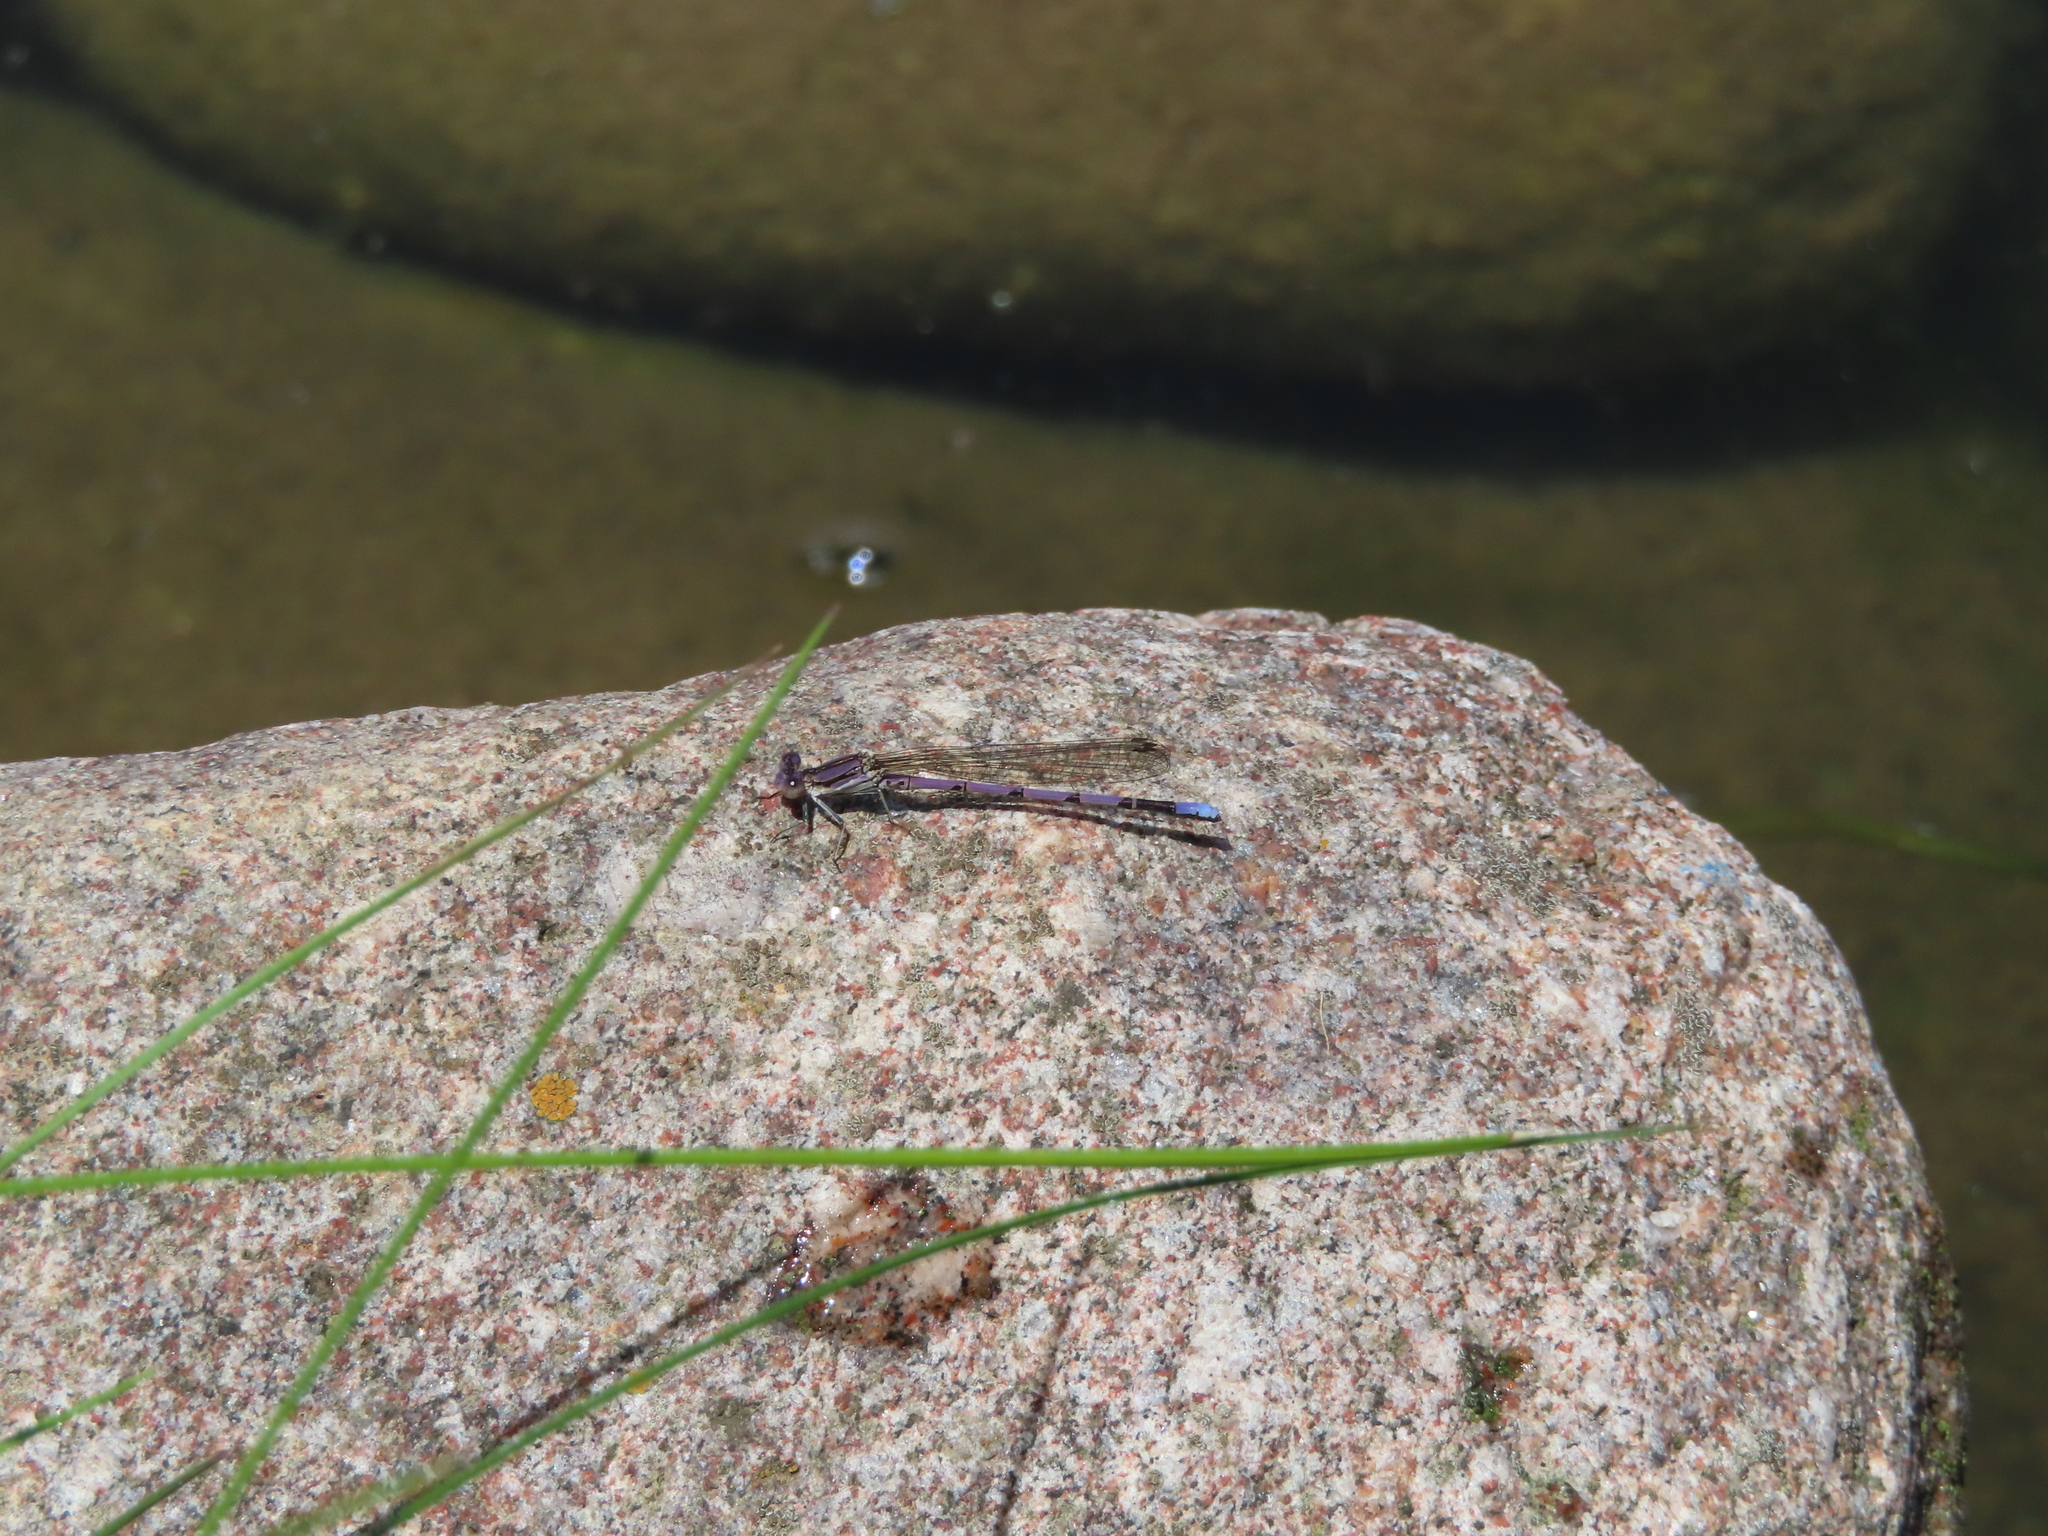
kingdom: Animalia
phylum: Arthropoda
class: Insecta
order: Odonata
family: Coenagrionidae
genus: Argia
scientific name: Argia fumipennis
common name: Variable dancer
